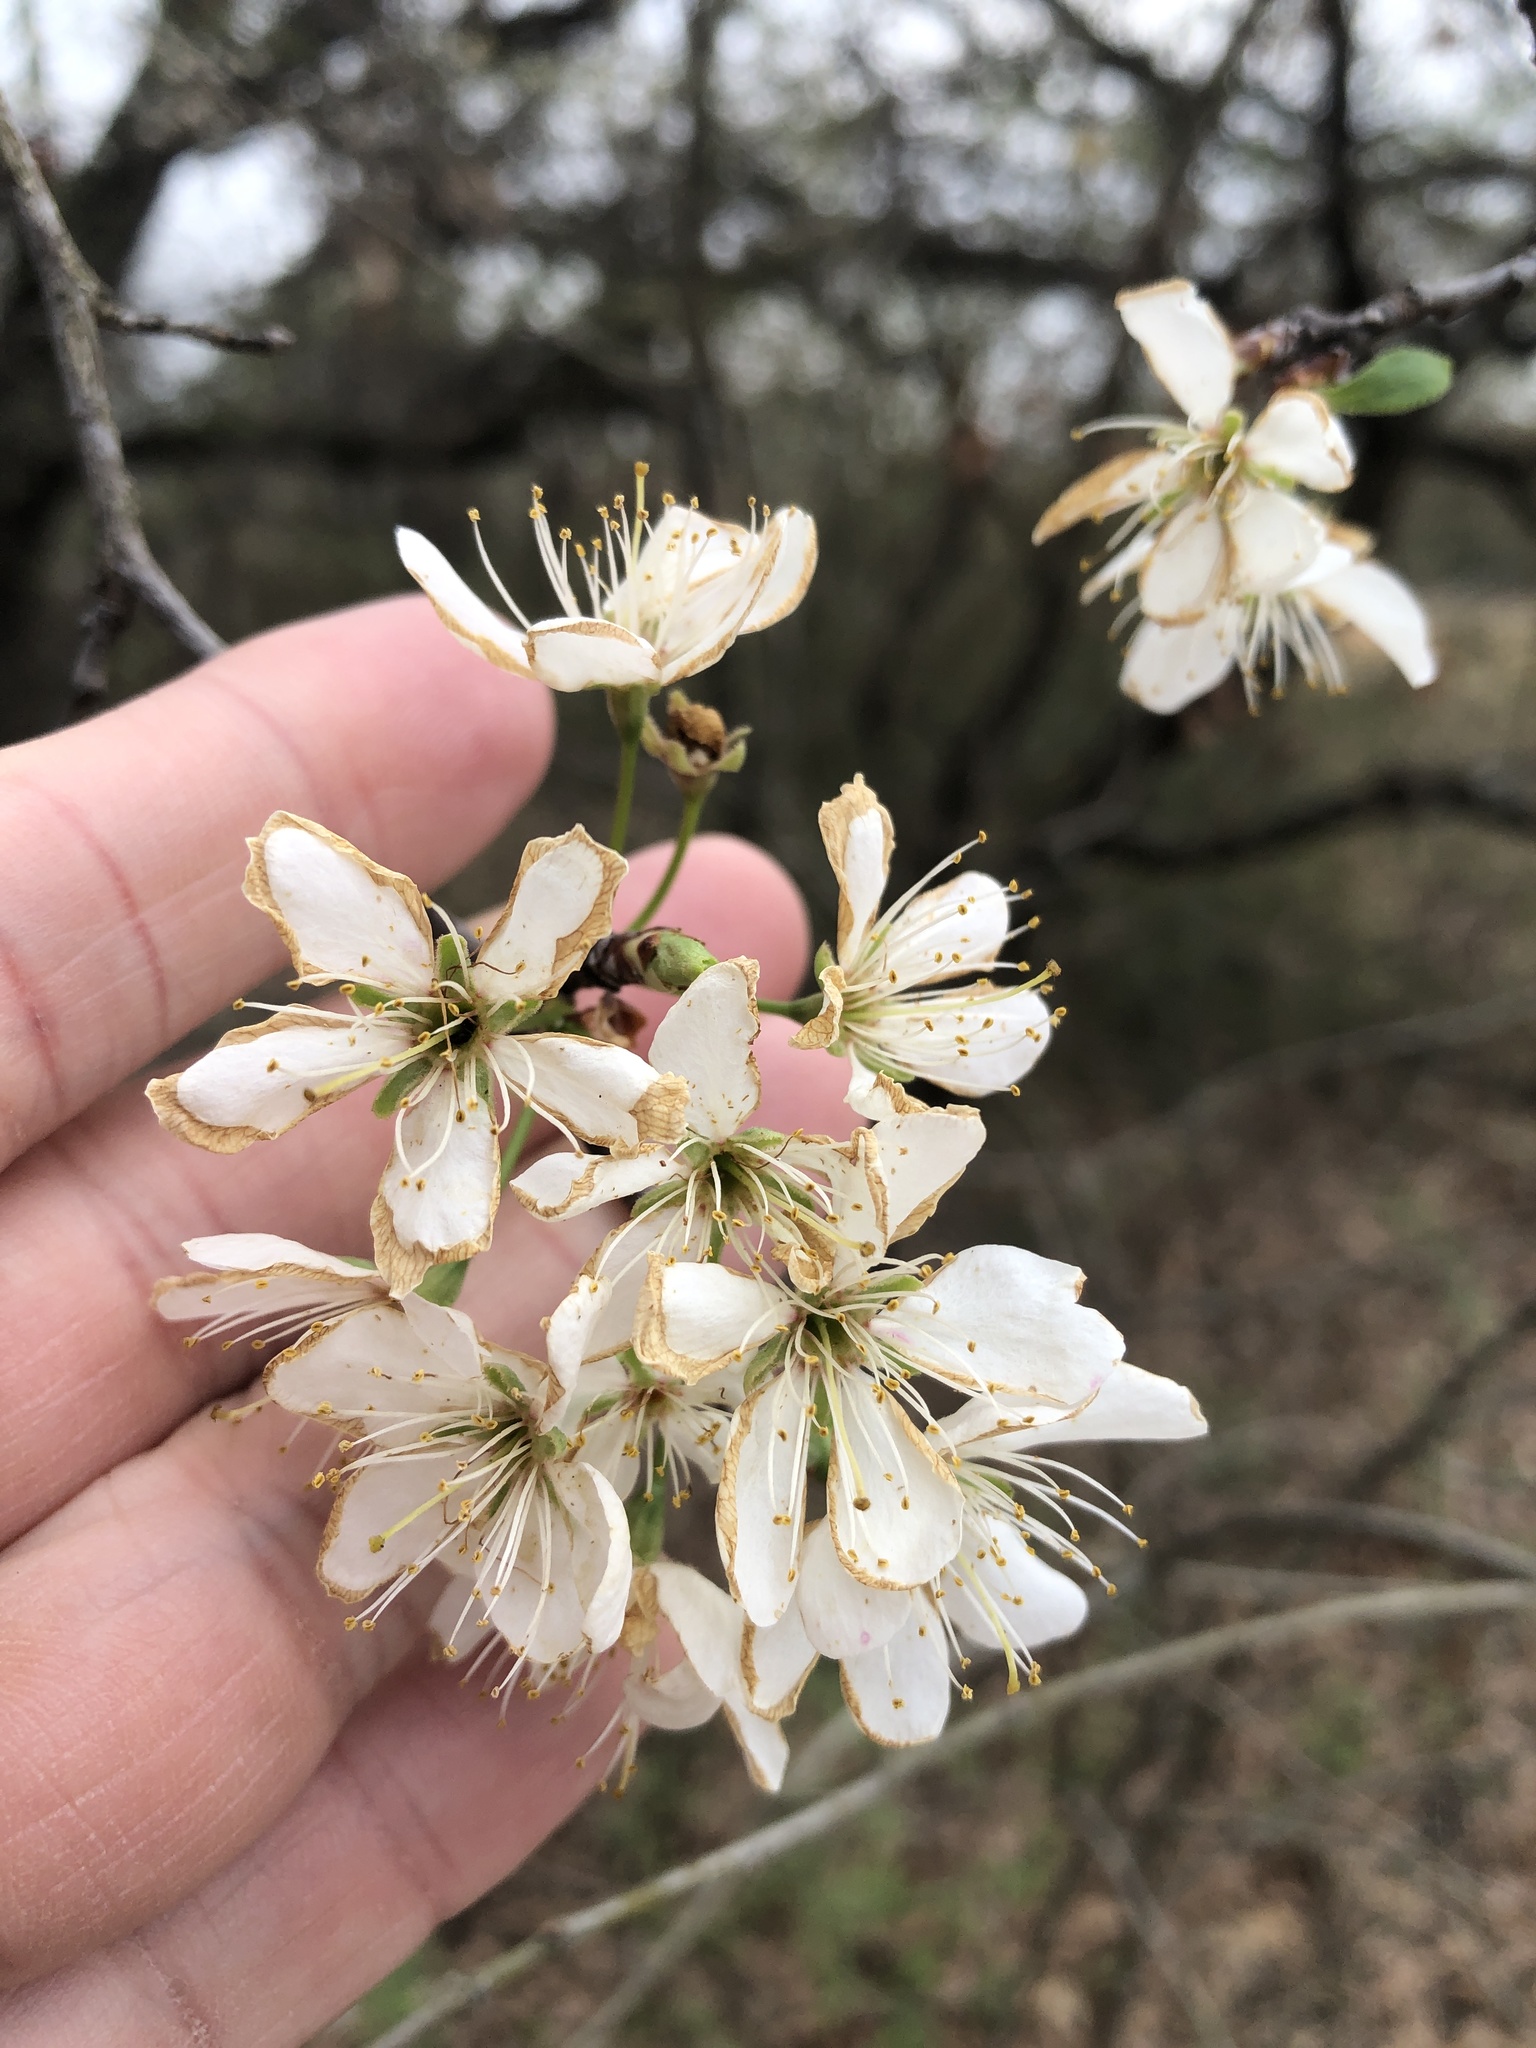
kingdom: Plantae
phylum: Tracheophyta
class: Magnoliopsida
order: Rosales
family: Rosaceae
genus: Prunus
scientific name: Prunus mexicana
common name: Mexican plum
